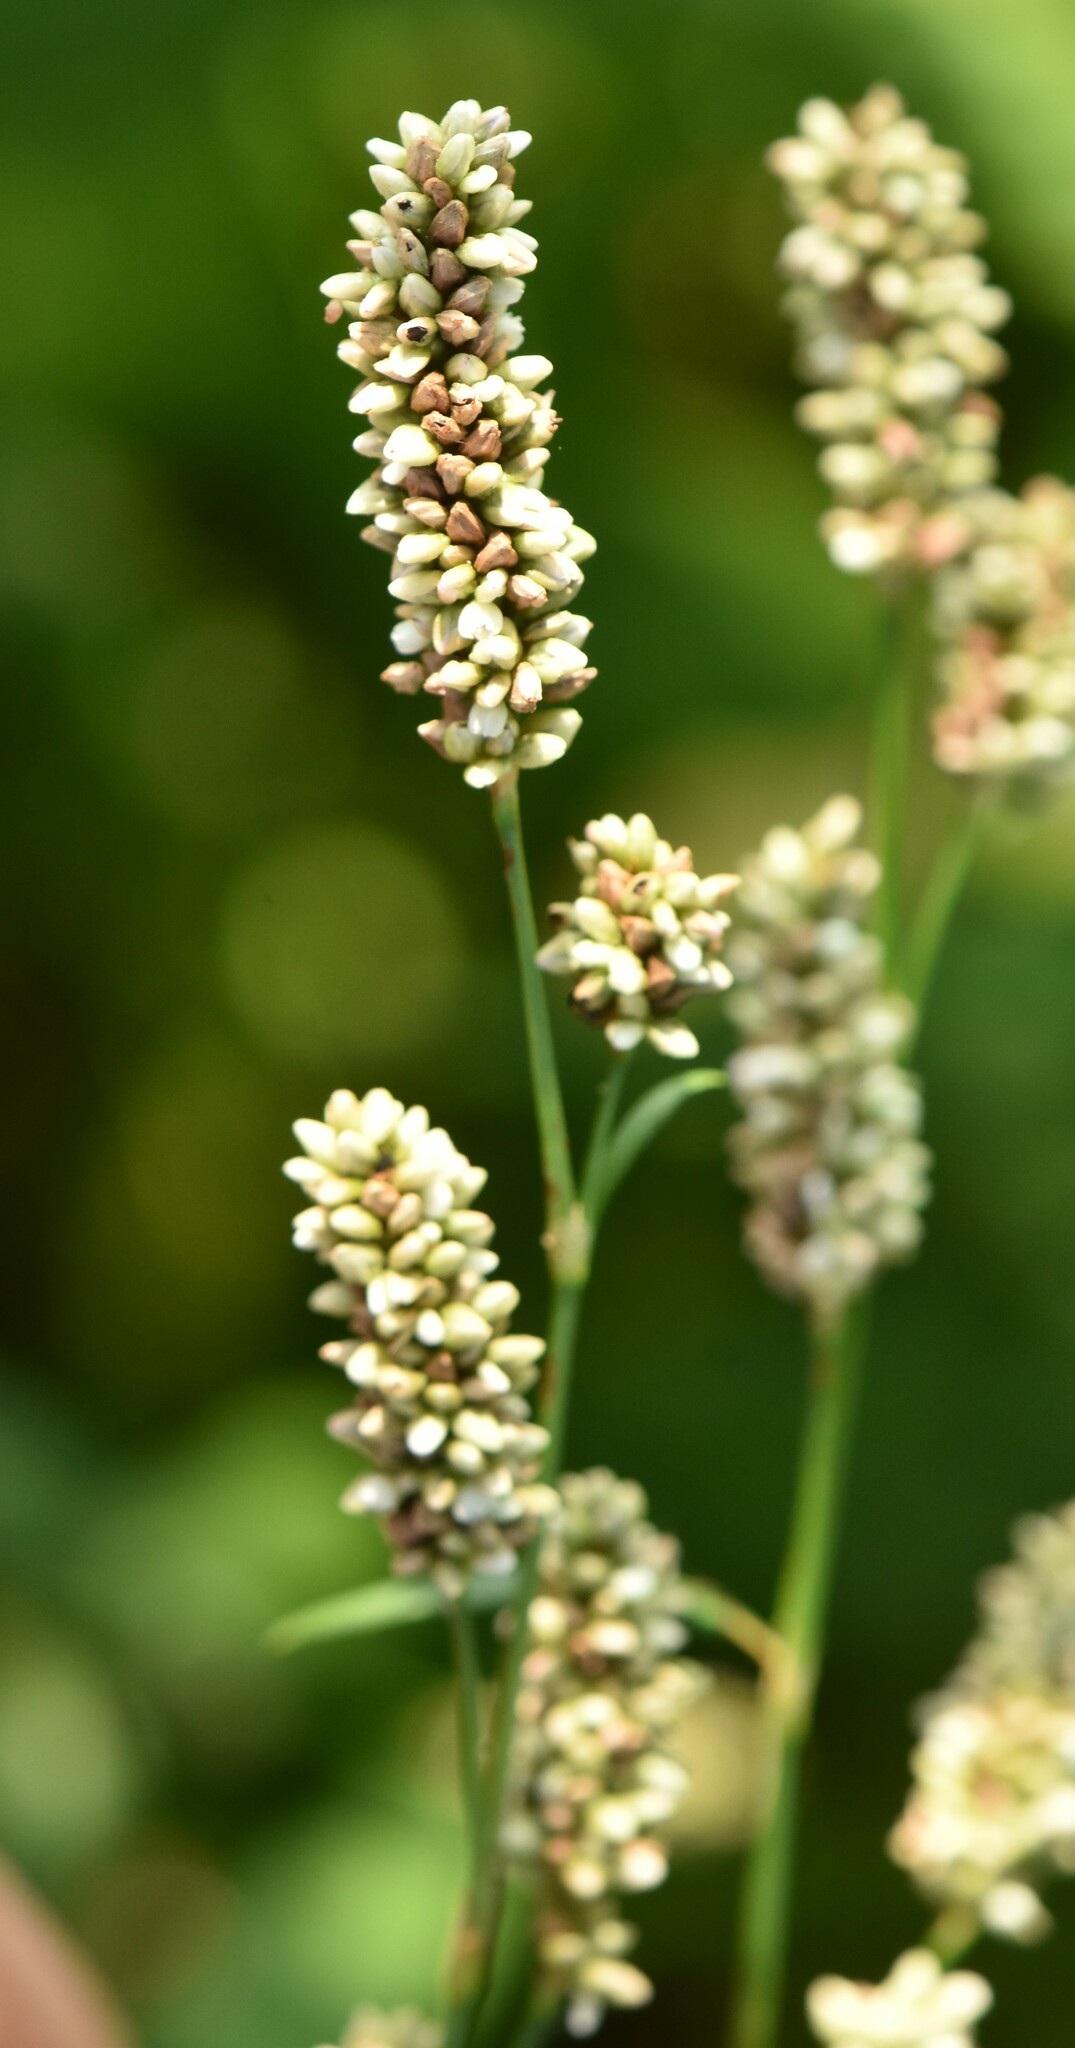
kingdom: Plantae
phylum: Tracheophyta
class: Magnoliopsida
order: Caryophyllales
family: Polygonaceae
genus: Persicaria
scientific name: Persicaria lapathifolia
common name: Curlytop knotweed
